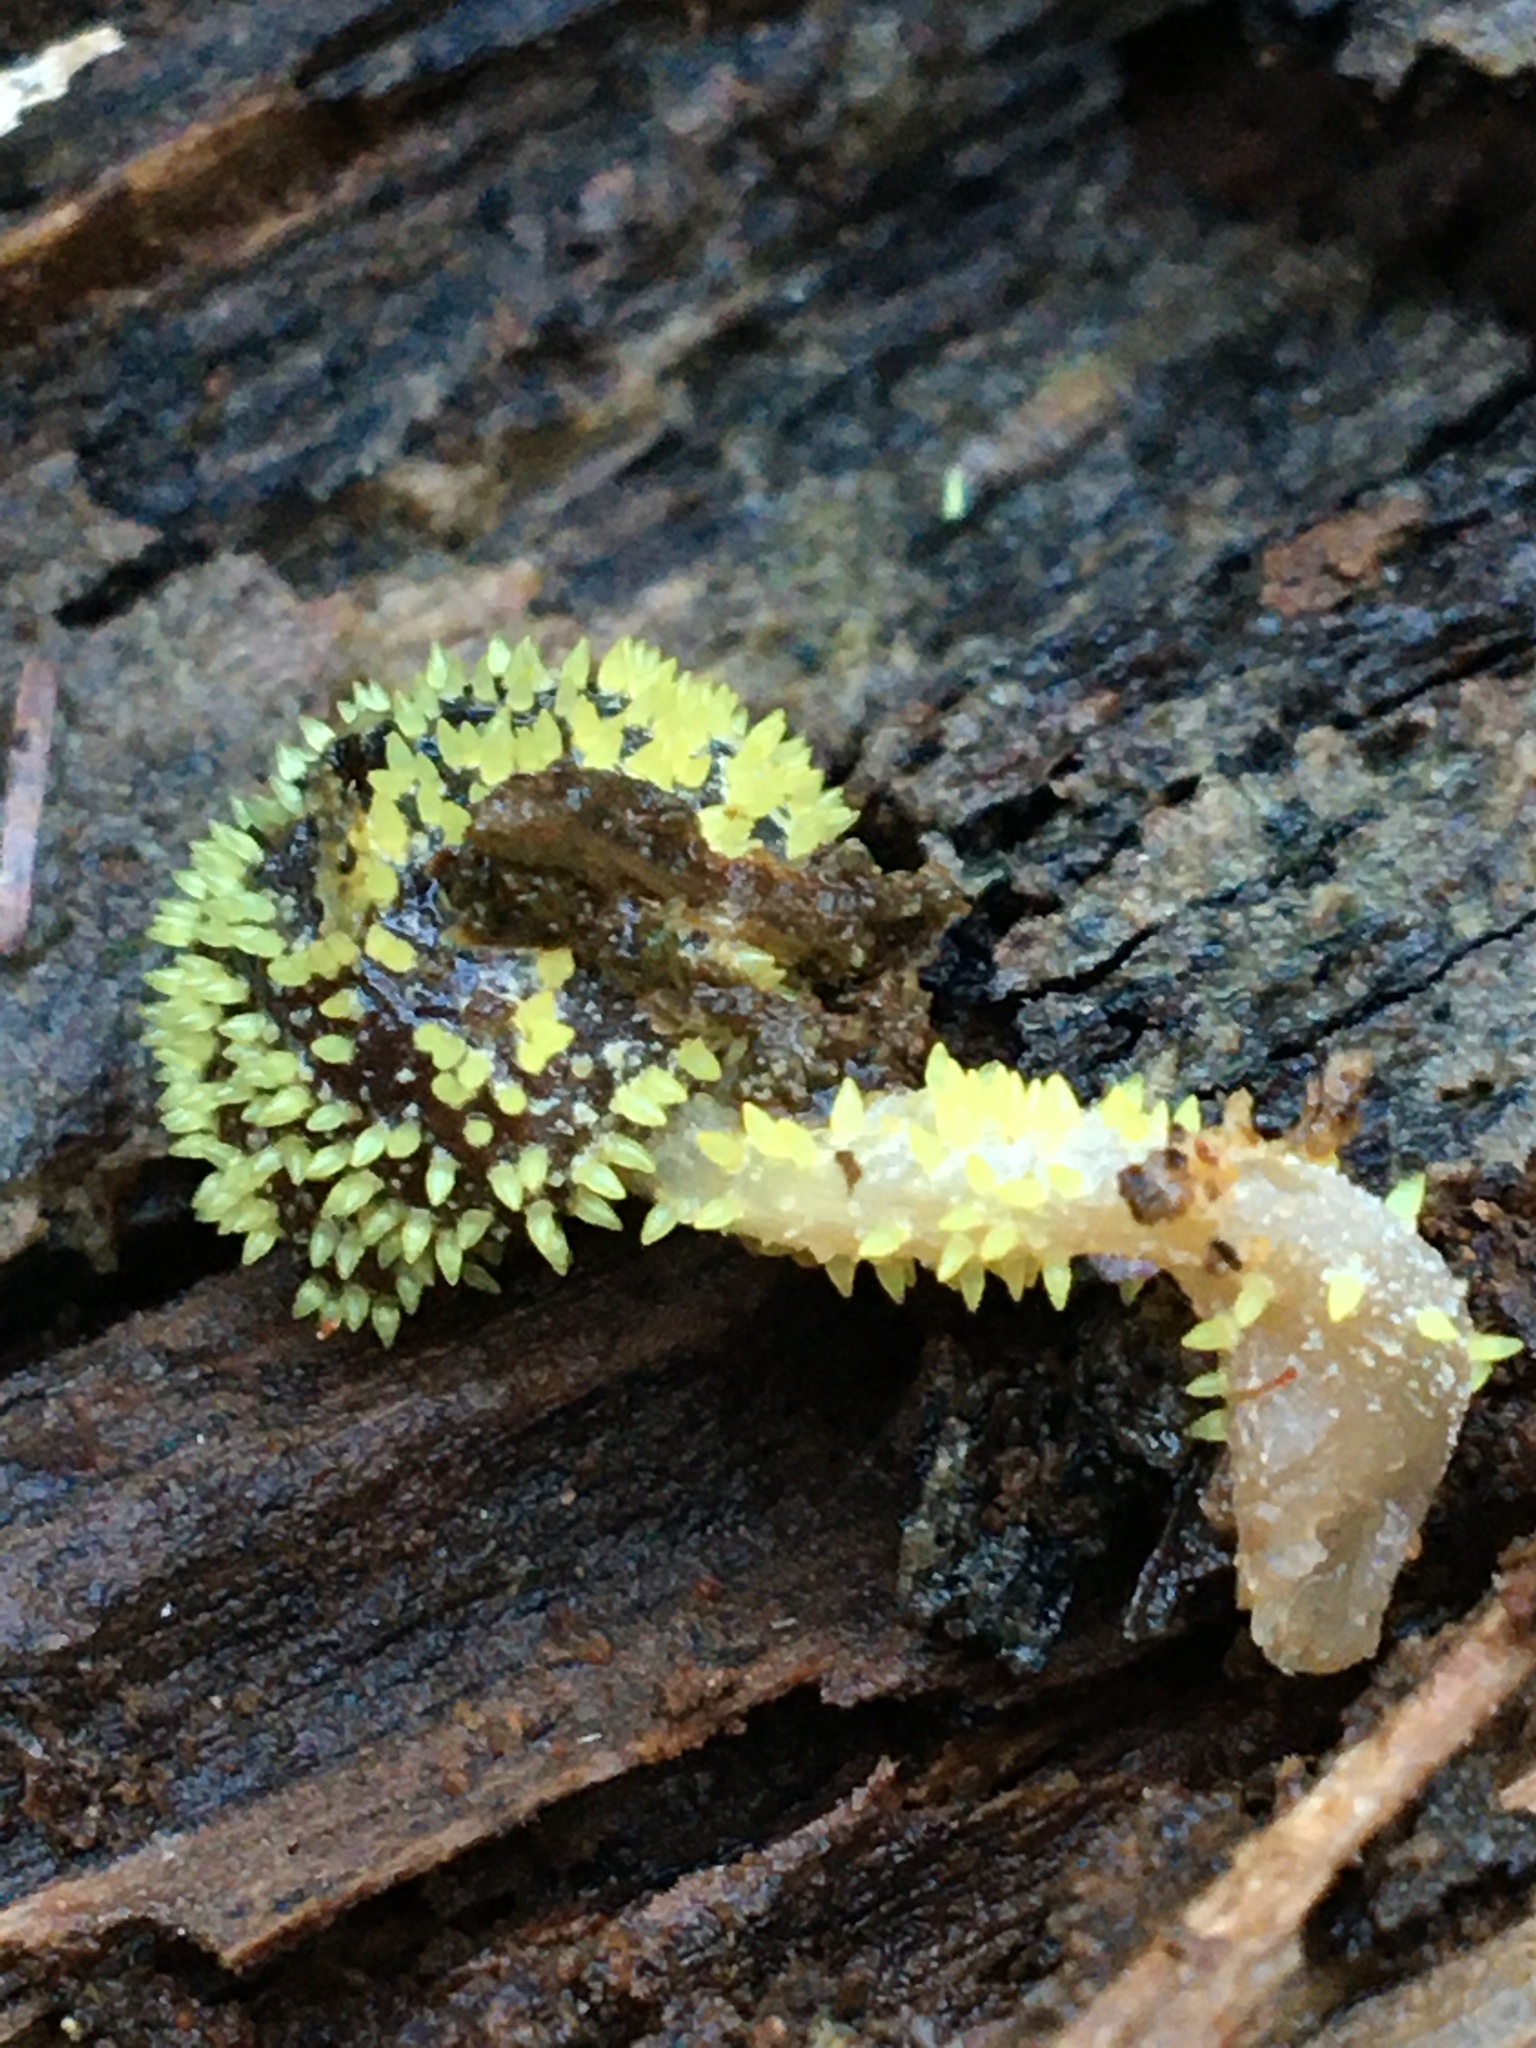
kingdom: Fungi
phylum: Ascomycota
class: Sordariomycetes
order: Hypocreales
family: Clavicipitaceae
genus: Neobarya
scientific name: Neobarya agaricicola
